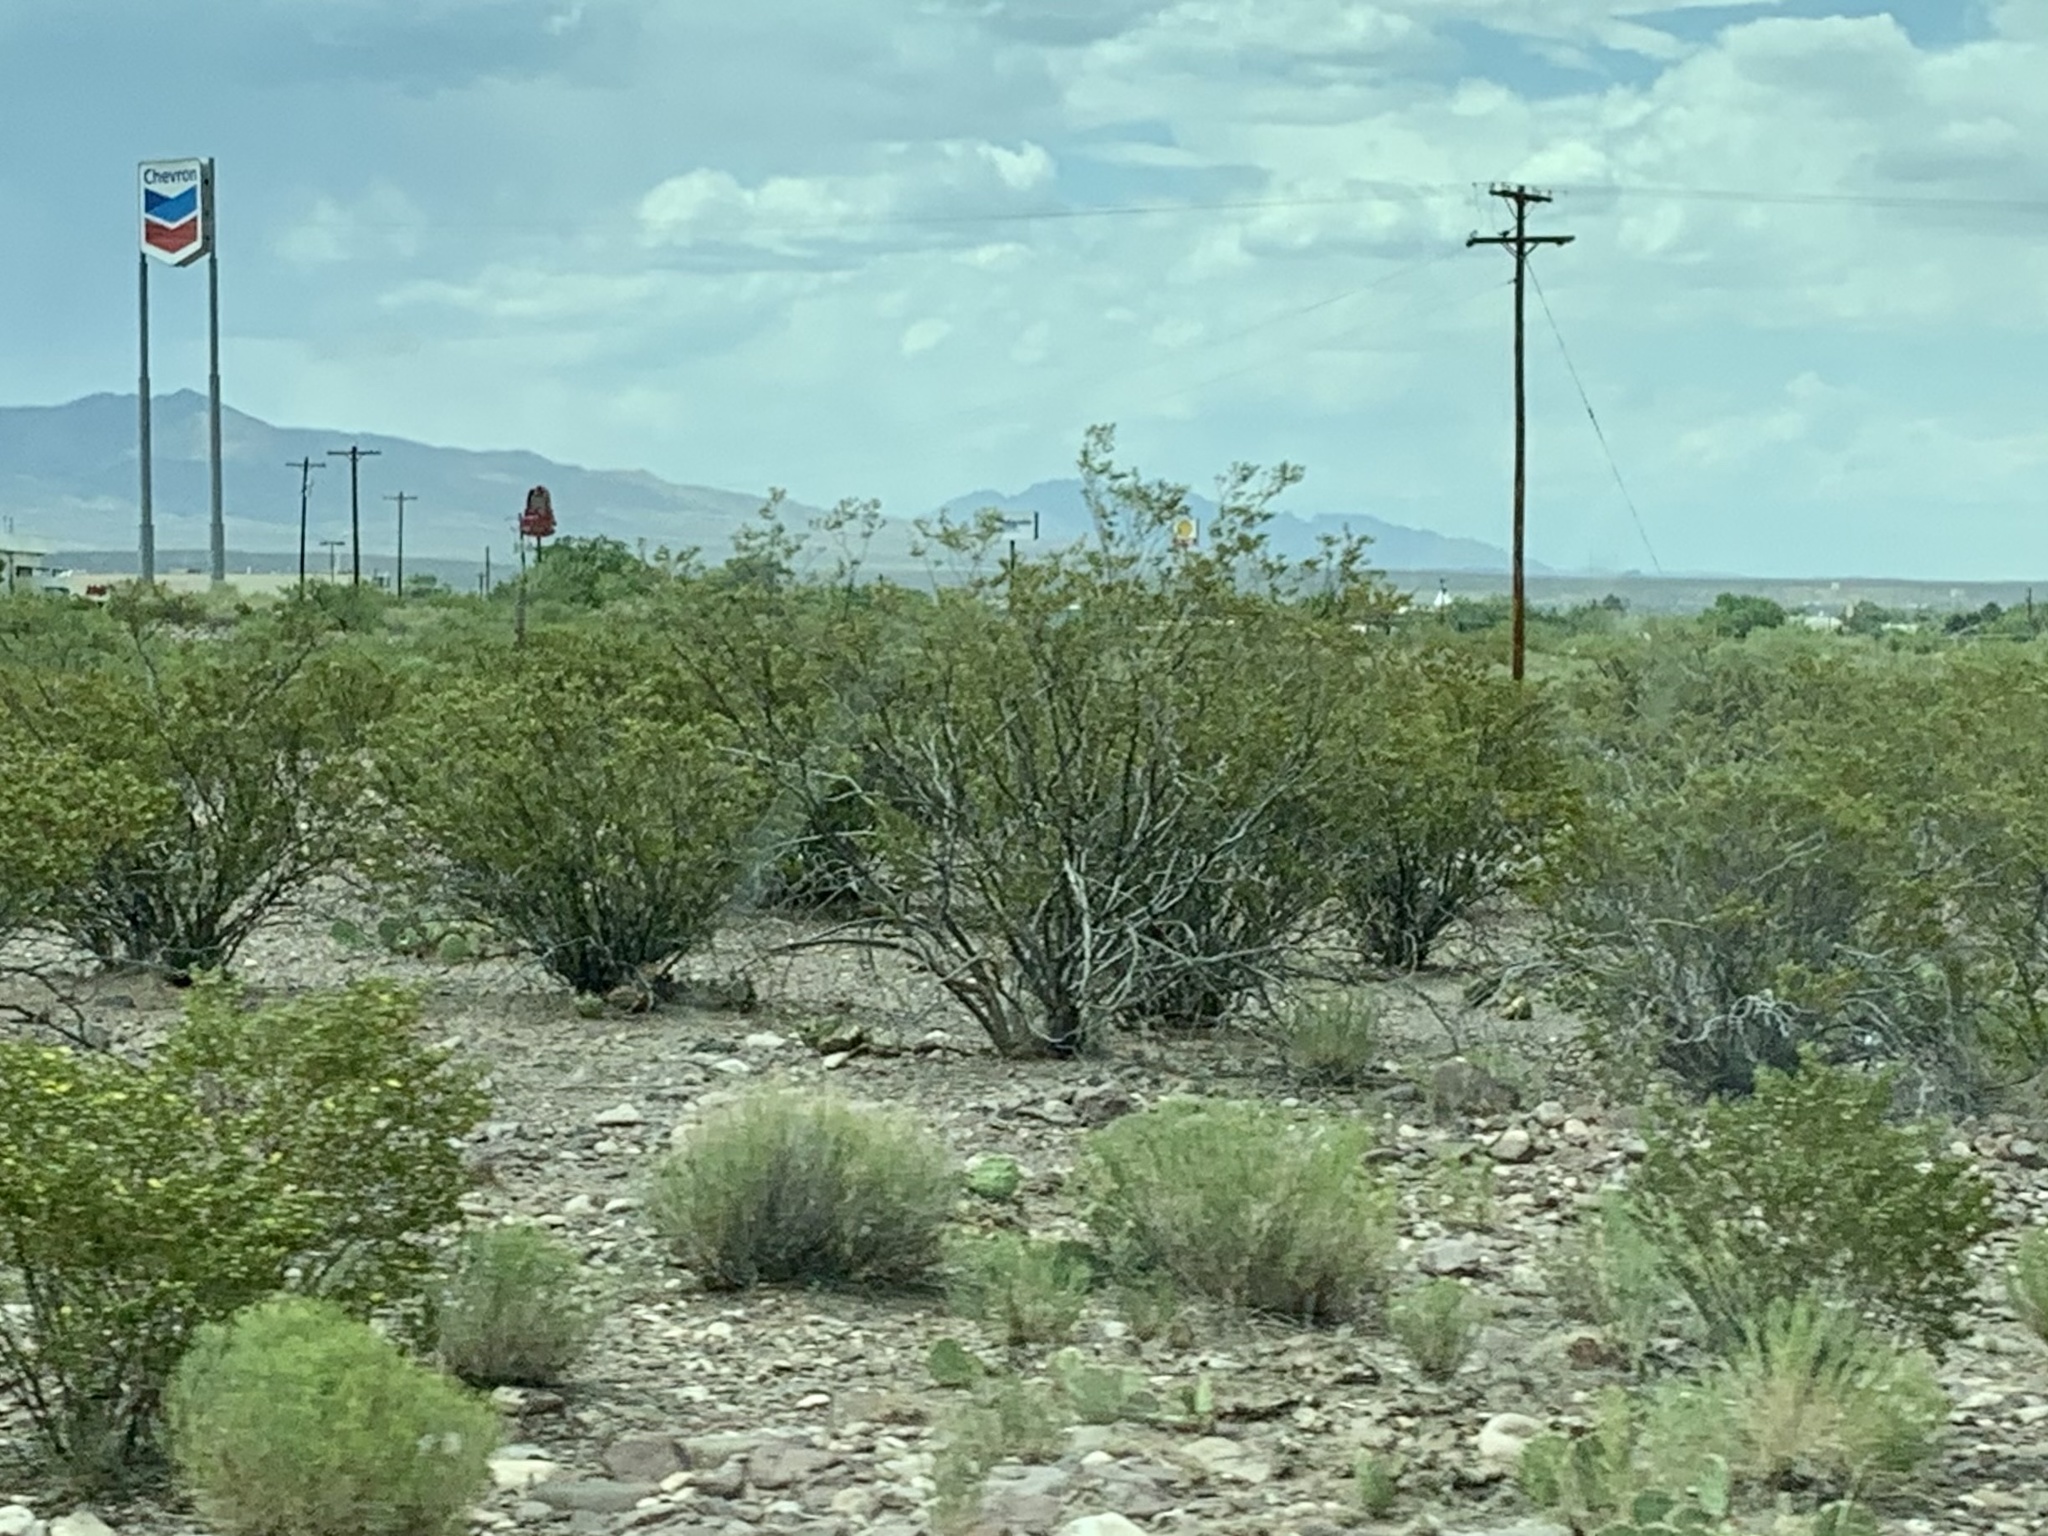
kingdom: Plantae
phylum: Tracheophyta
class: Magnoliopsida
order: Zygophyllales
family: Zygophyllaceae
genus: Larrea
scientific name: Larrea tridentata
